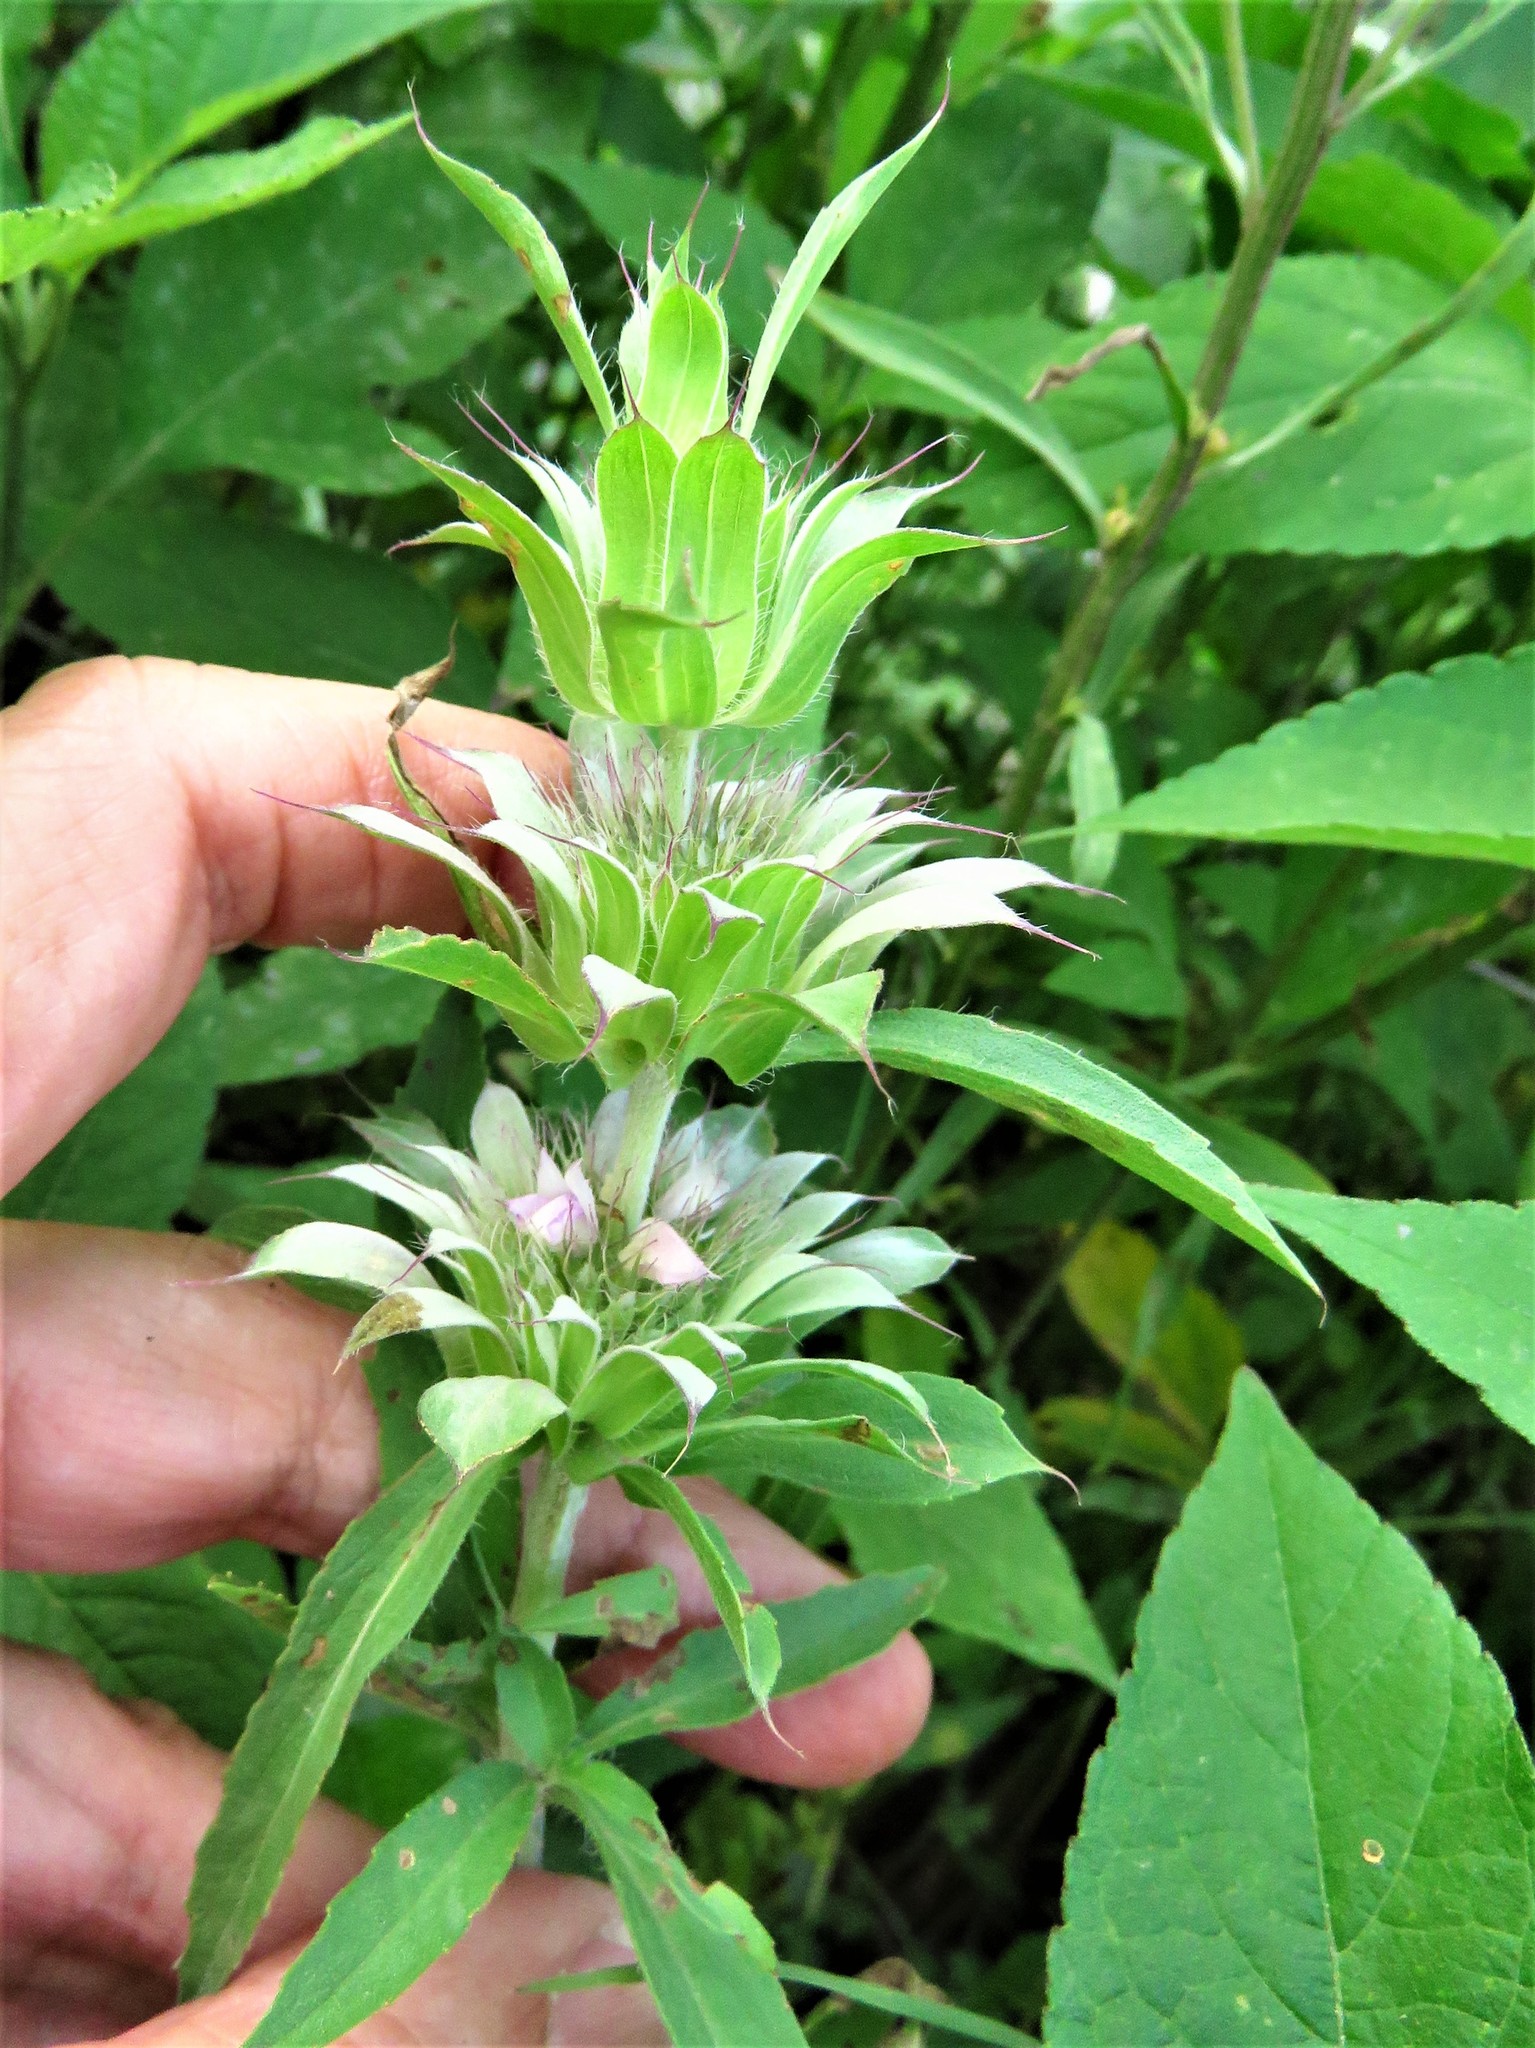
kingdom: Plantae
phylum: Tracheophyta
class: Magnoliopsida
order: Lamiales
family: Lamiaceae
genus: Monarda
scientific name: Monarda citriodora
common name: Lemon beebalm
